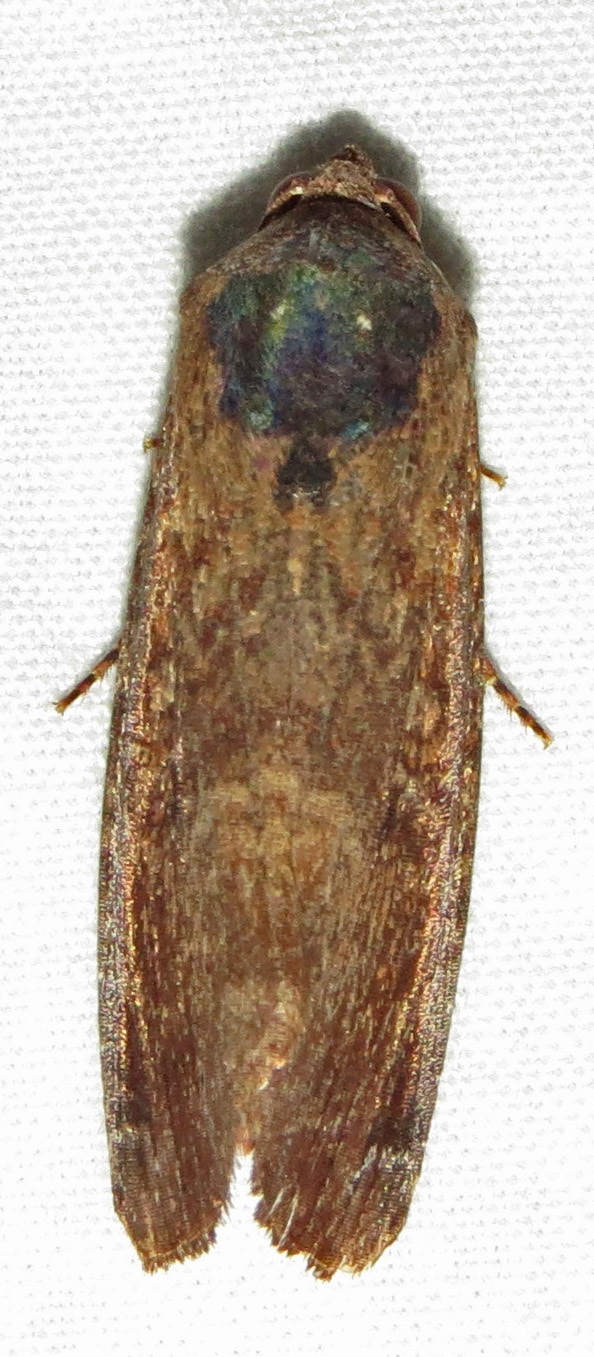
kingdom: Animalia
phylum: Arthropoda
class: Insecta
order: Lepidoptera
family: Noctuidae
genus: Magusa
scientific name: Magusa divaricata
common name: Orb narrow-winged moth
